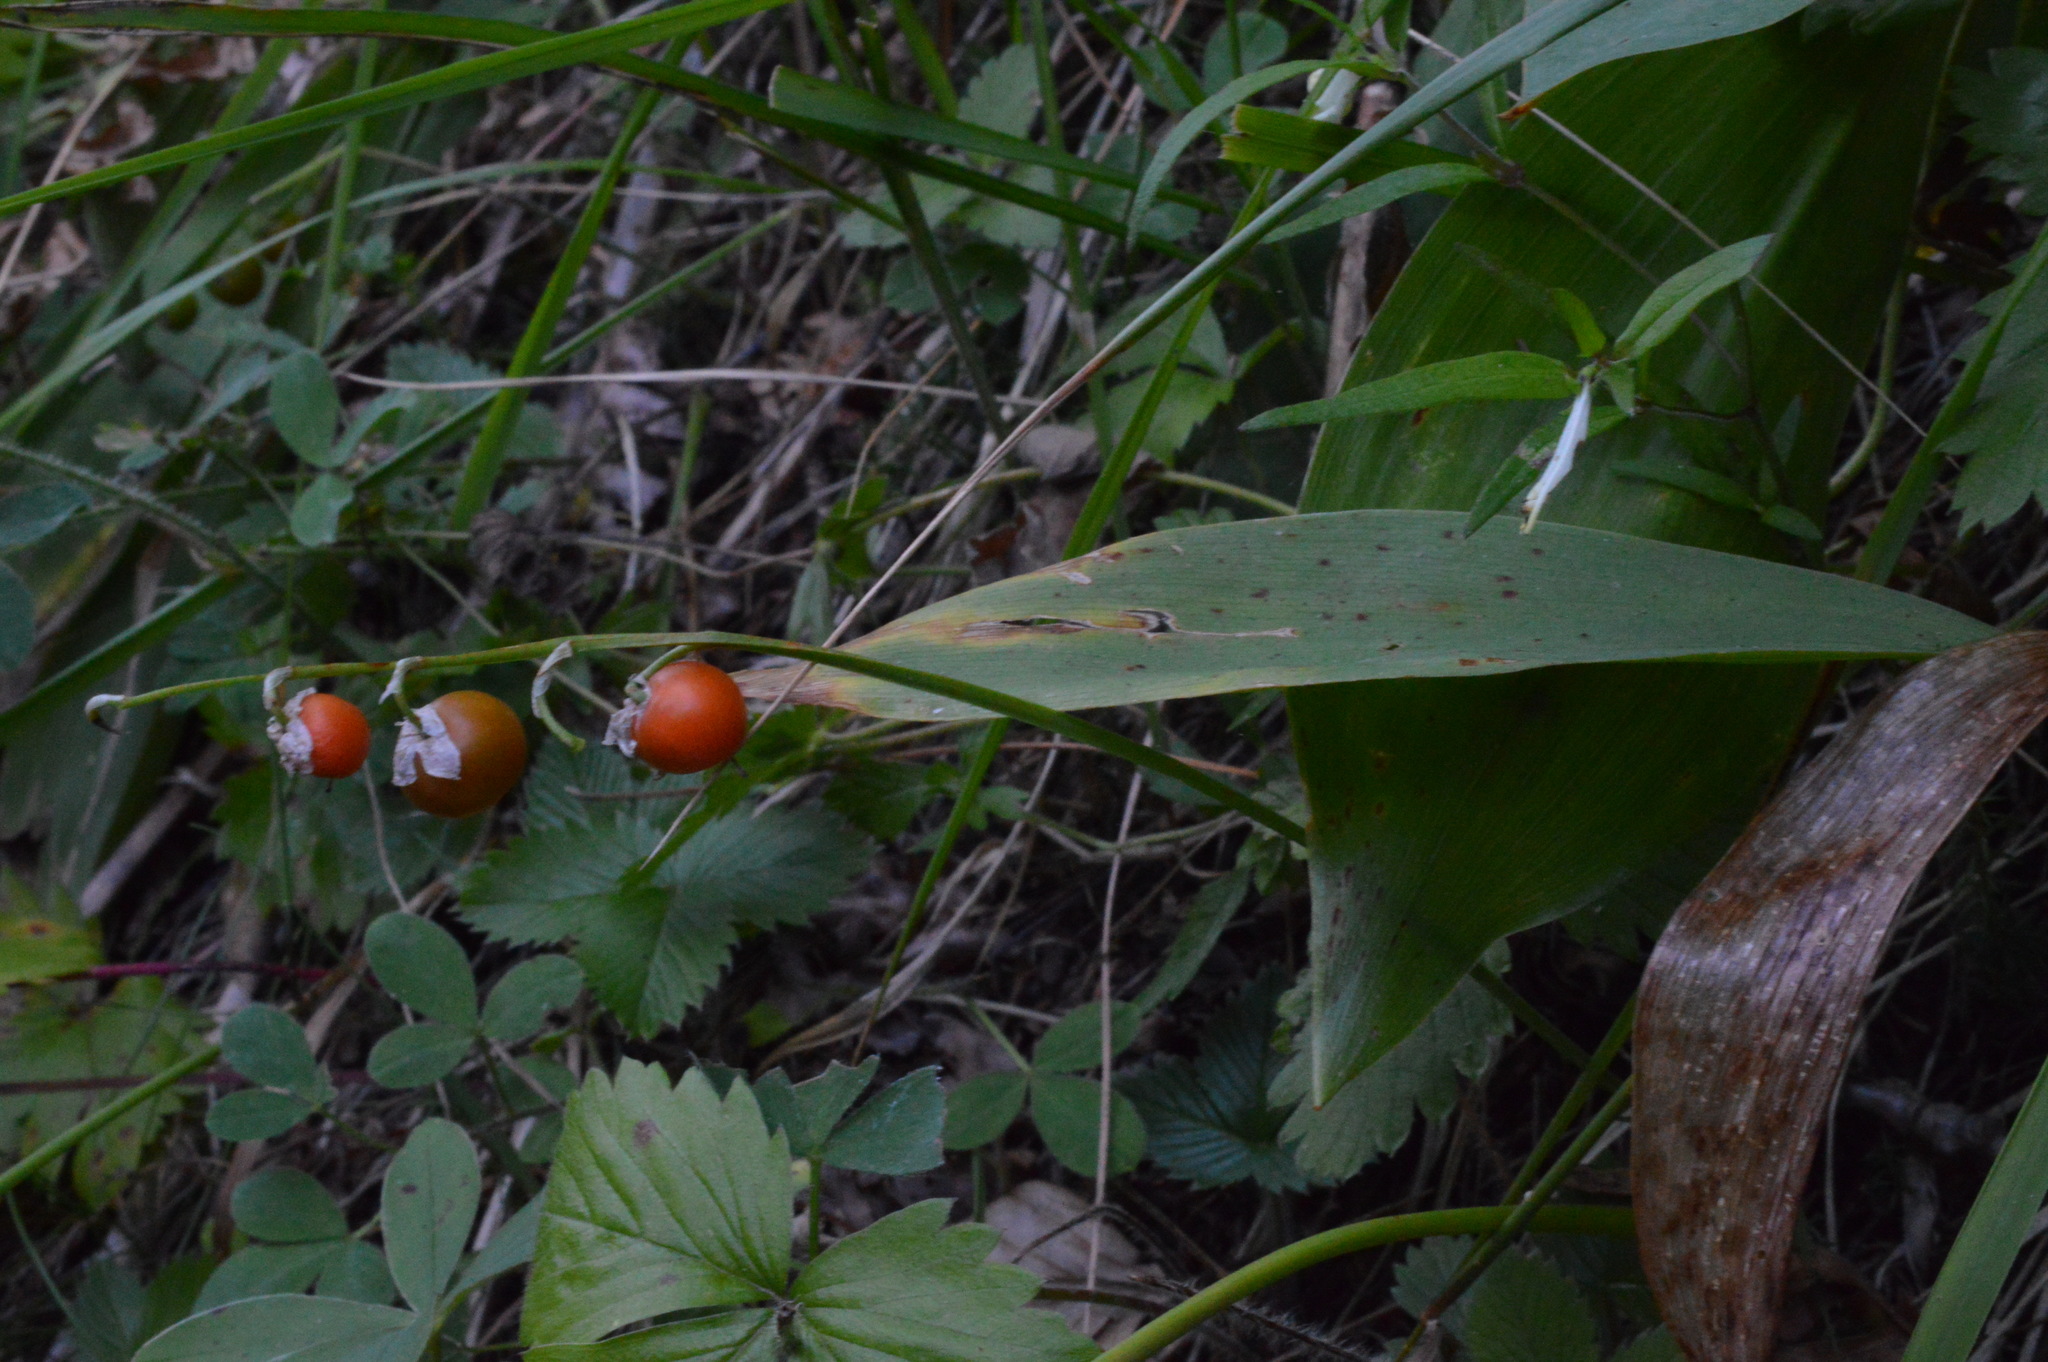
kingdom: Plantae
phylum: Tracheophyta
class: Liliopsida
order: Asparagales
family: Asparagaceae
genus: Convallaria
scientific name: Convallaria majalis
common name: Lily-of-the-valley
